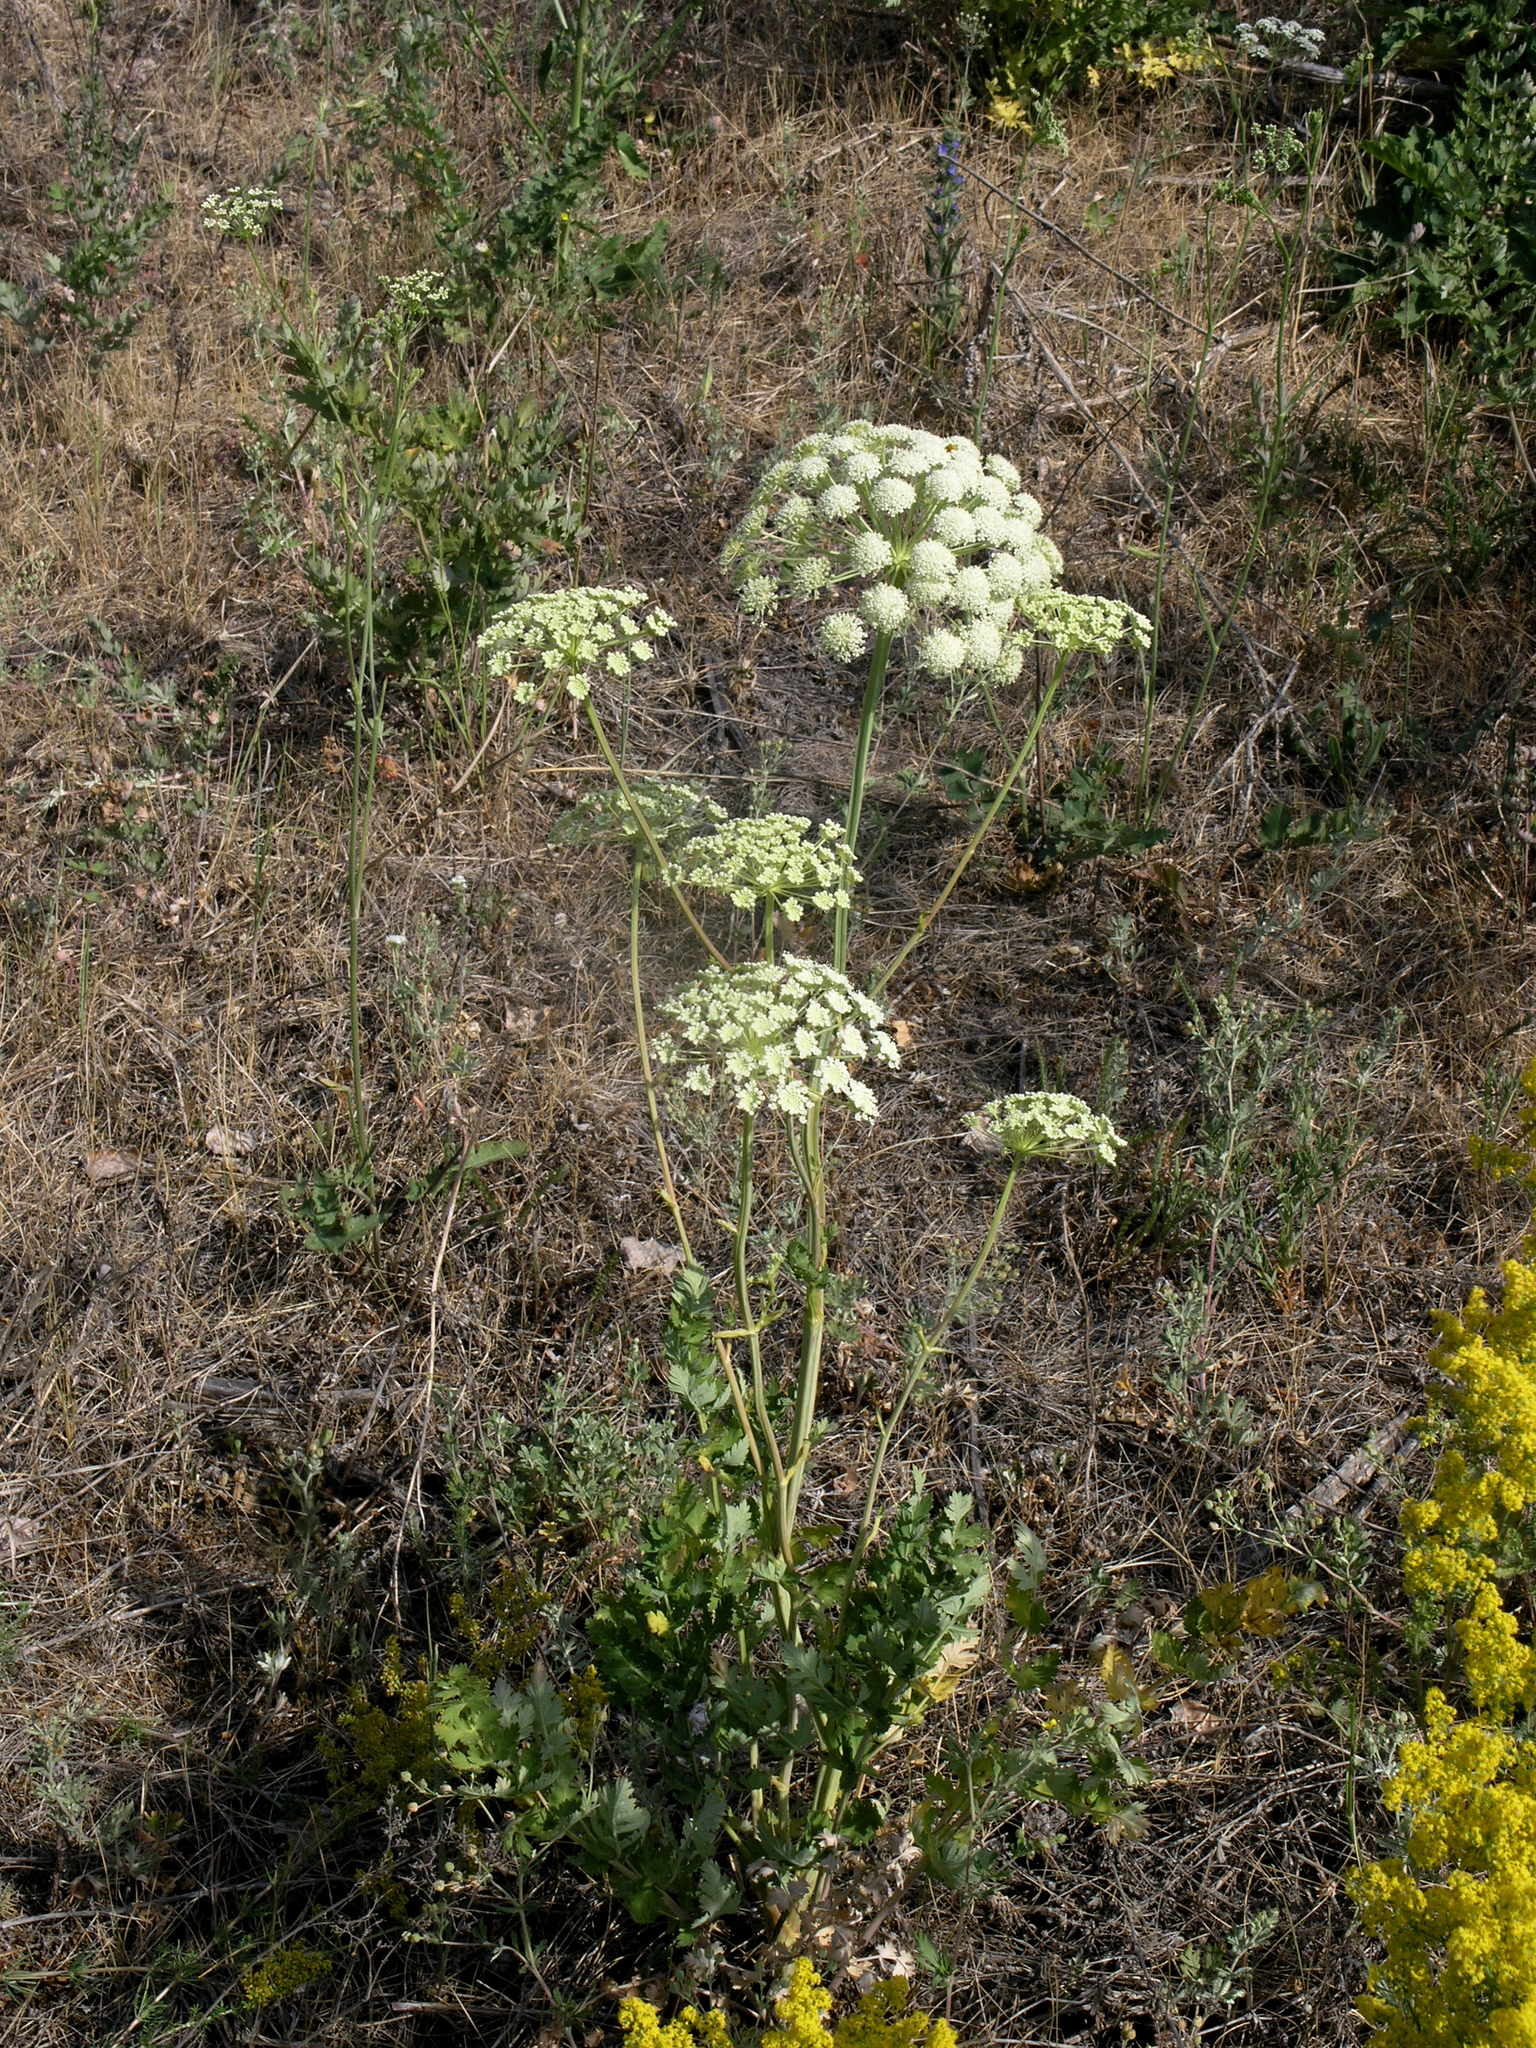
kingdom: Plantae
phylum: Tracheophyta
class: Magnoliopsida
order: Apiales
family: Apiaceae
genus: Seseli
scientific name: Seseli libanotis
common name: Mooncarrot
